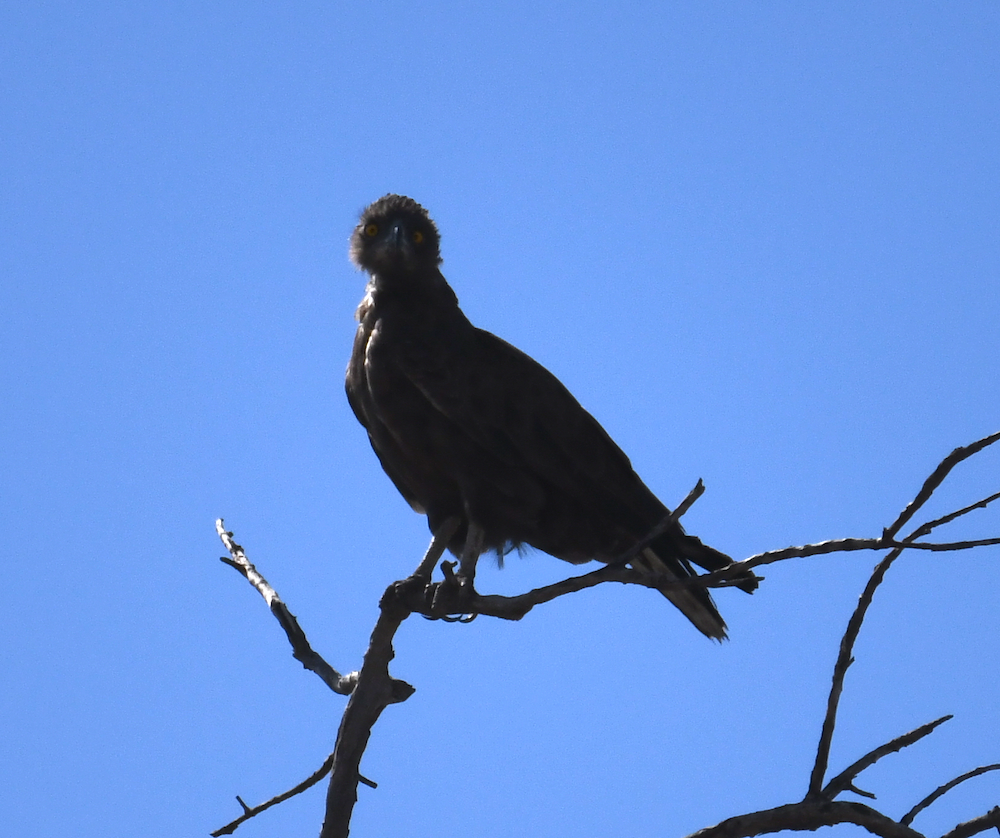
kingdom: Animalia
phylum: Chordata
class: Aves
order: Accipitriformes
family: Accipitridae
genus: Circaetus
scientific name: Circaetus cinereus
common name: Brown snake eagle
